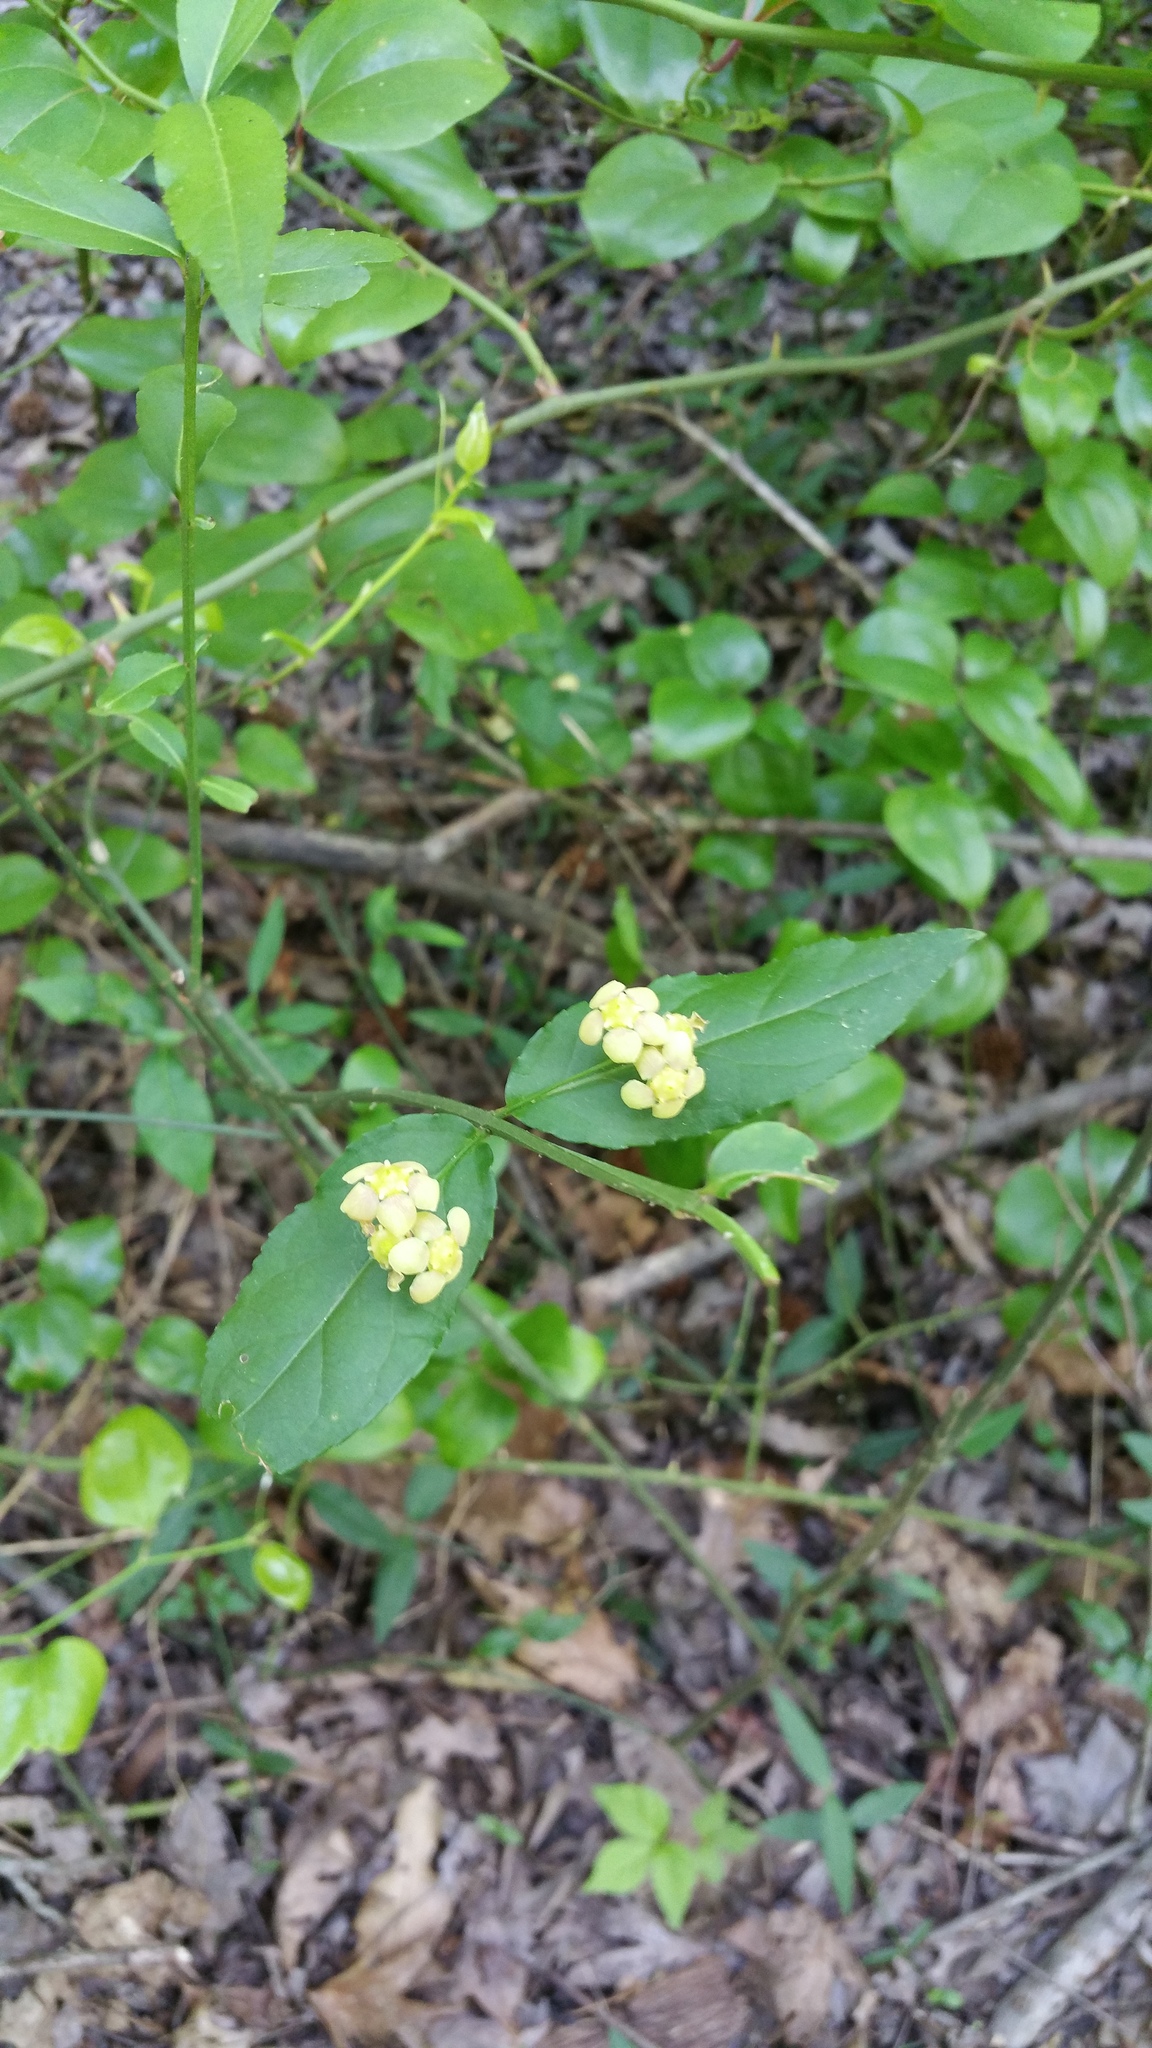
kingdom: Plantae
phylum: Tracheophyta
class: Magnoliopsida
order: Celastrales
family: Celastraceae
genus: Euonymus
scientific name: Euonymus americanus
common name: Bursting-heart
